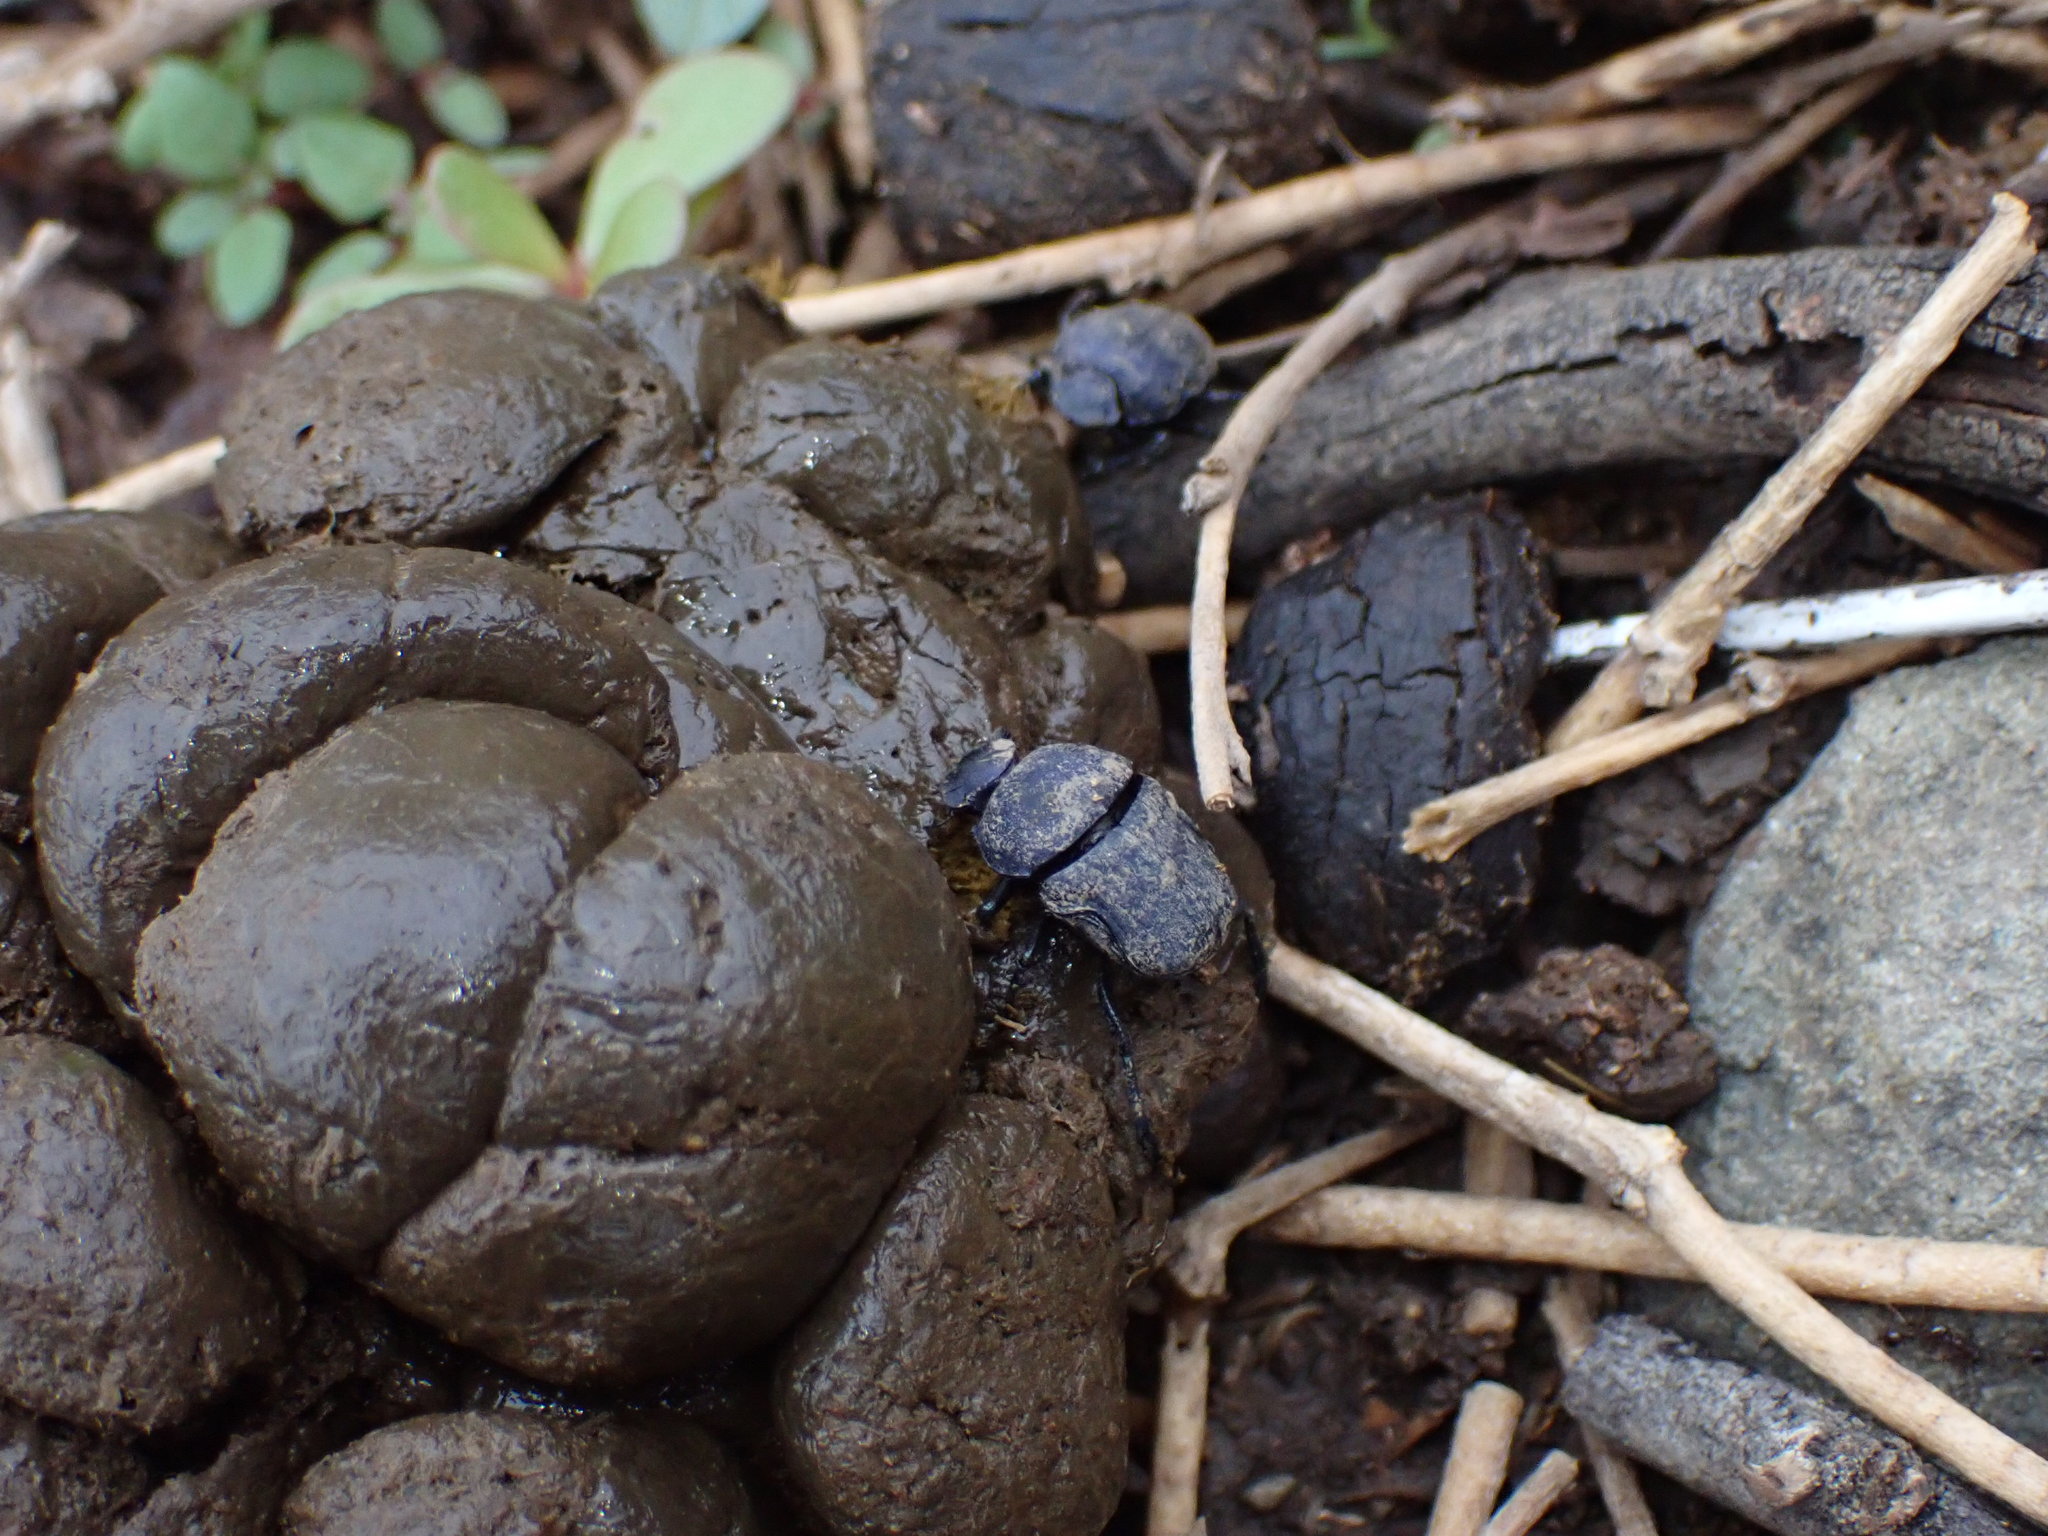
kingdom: Animalia
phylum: Arthropoda
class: Insecta
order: Coleoptera
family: Scarabaeidae
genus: Gymnopleurus
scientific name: Gymnopleurus andreaei
